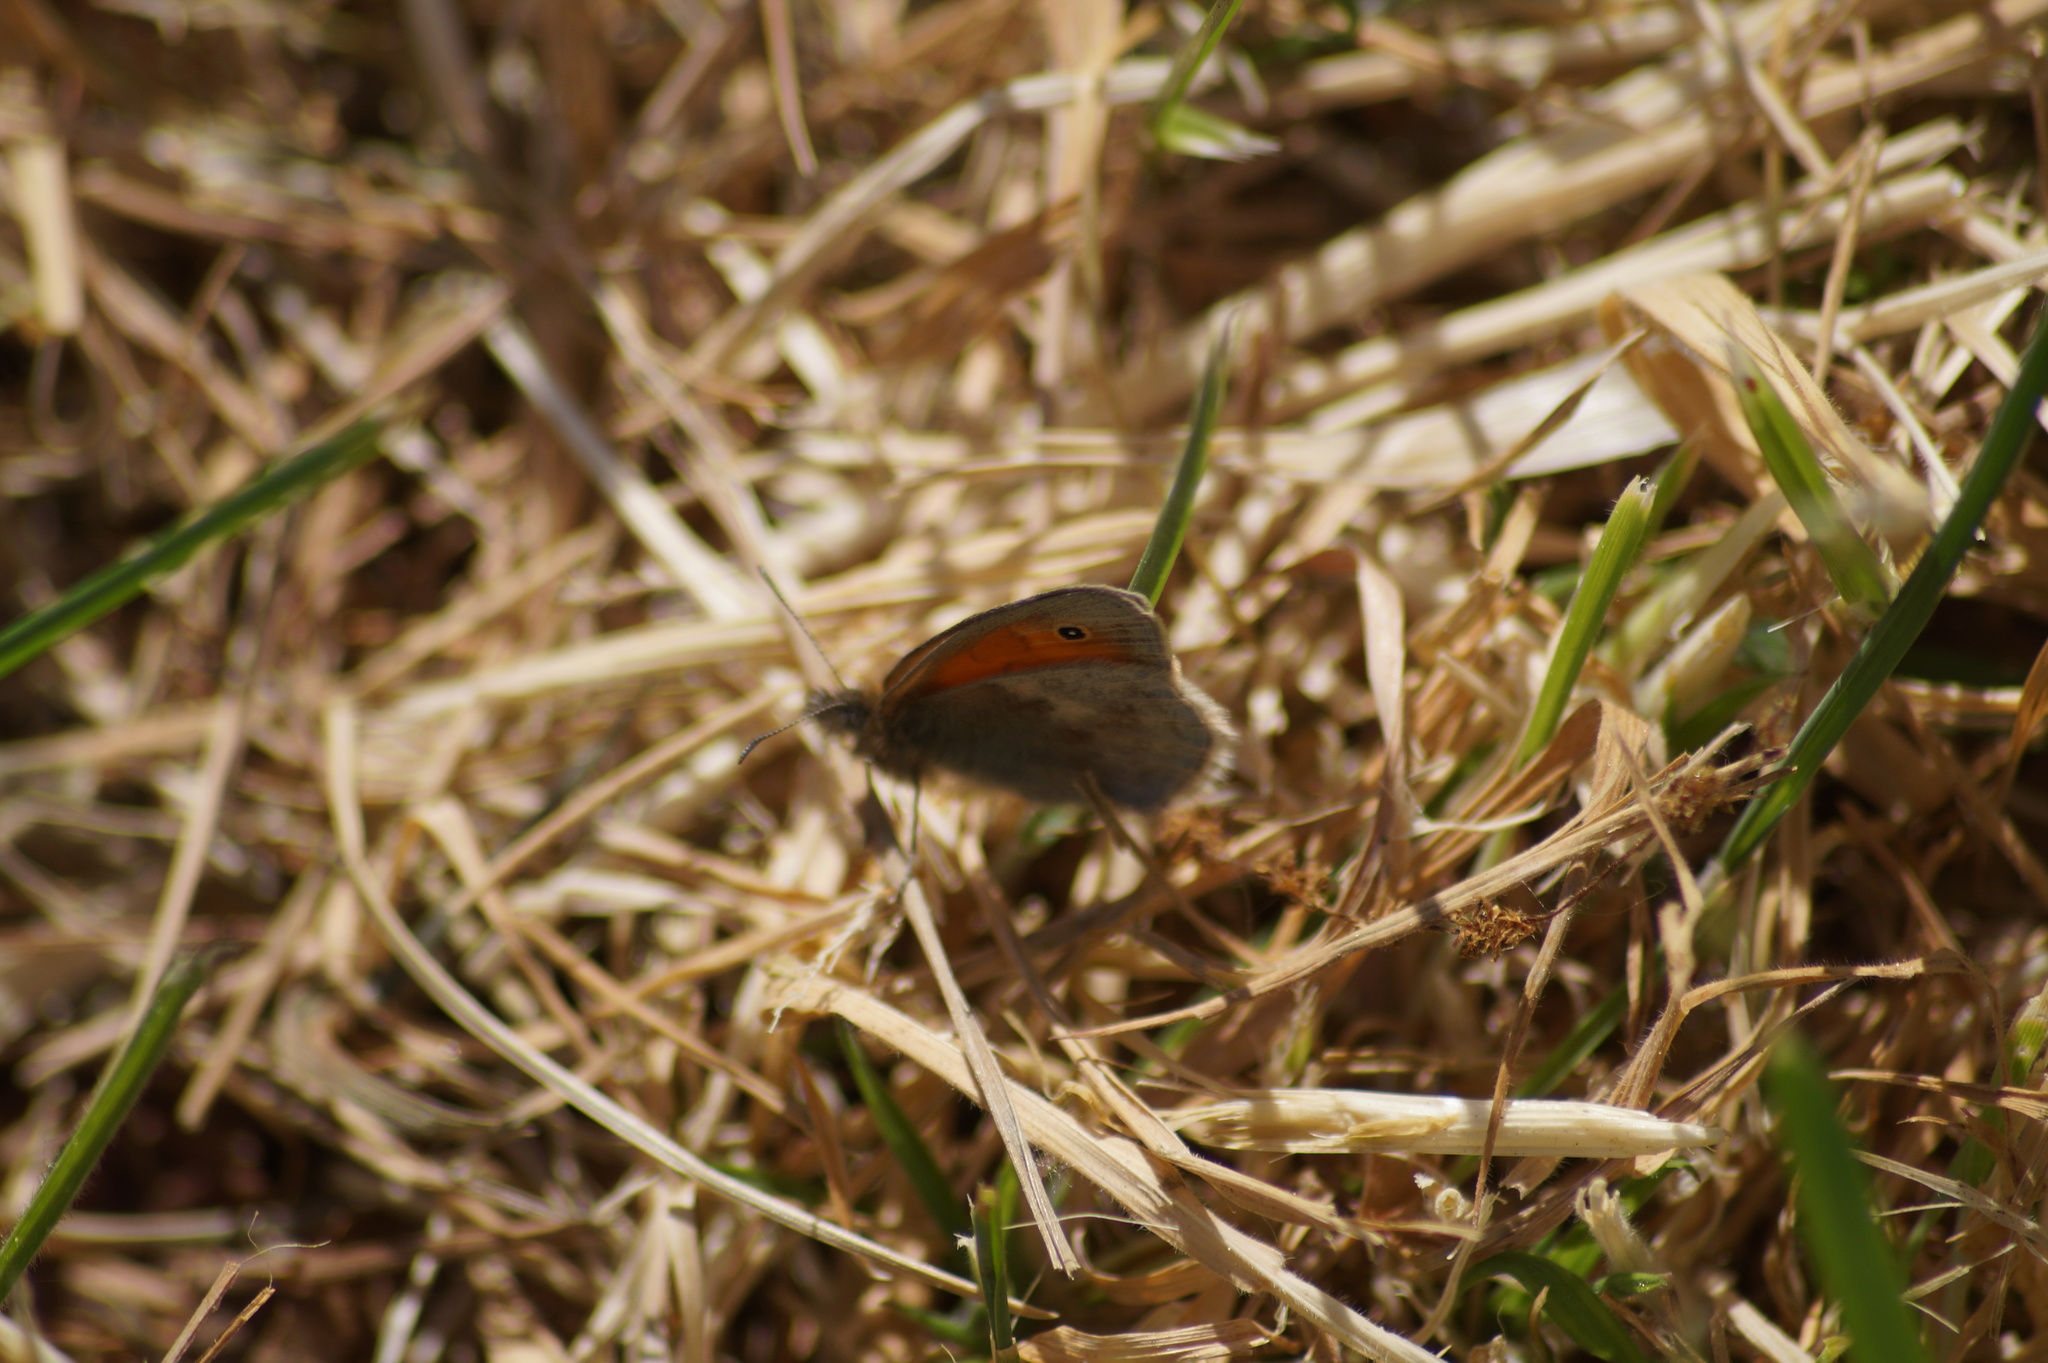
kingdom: Animalia
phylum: Arthropoda
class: Insecta
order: Lepidoptera
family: Nymphalidae
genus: Coenonympha
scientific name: Coenonympha pamphilus
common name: Small heath
